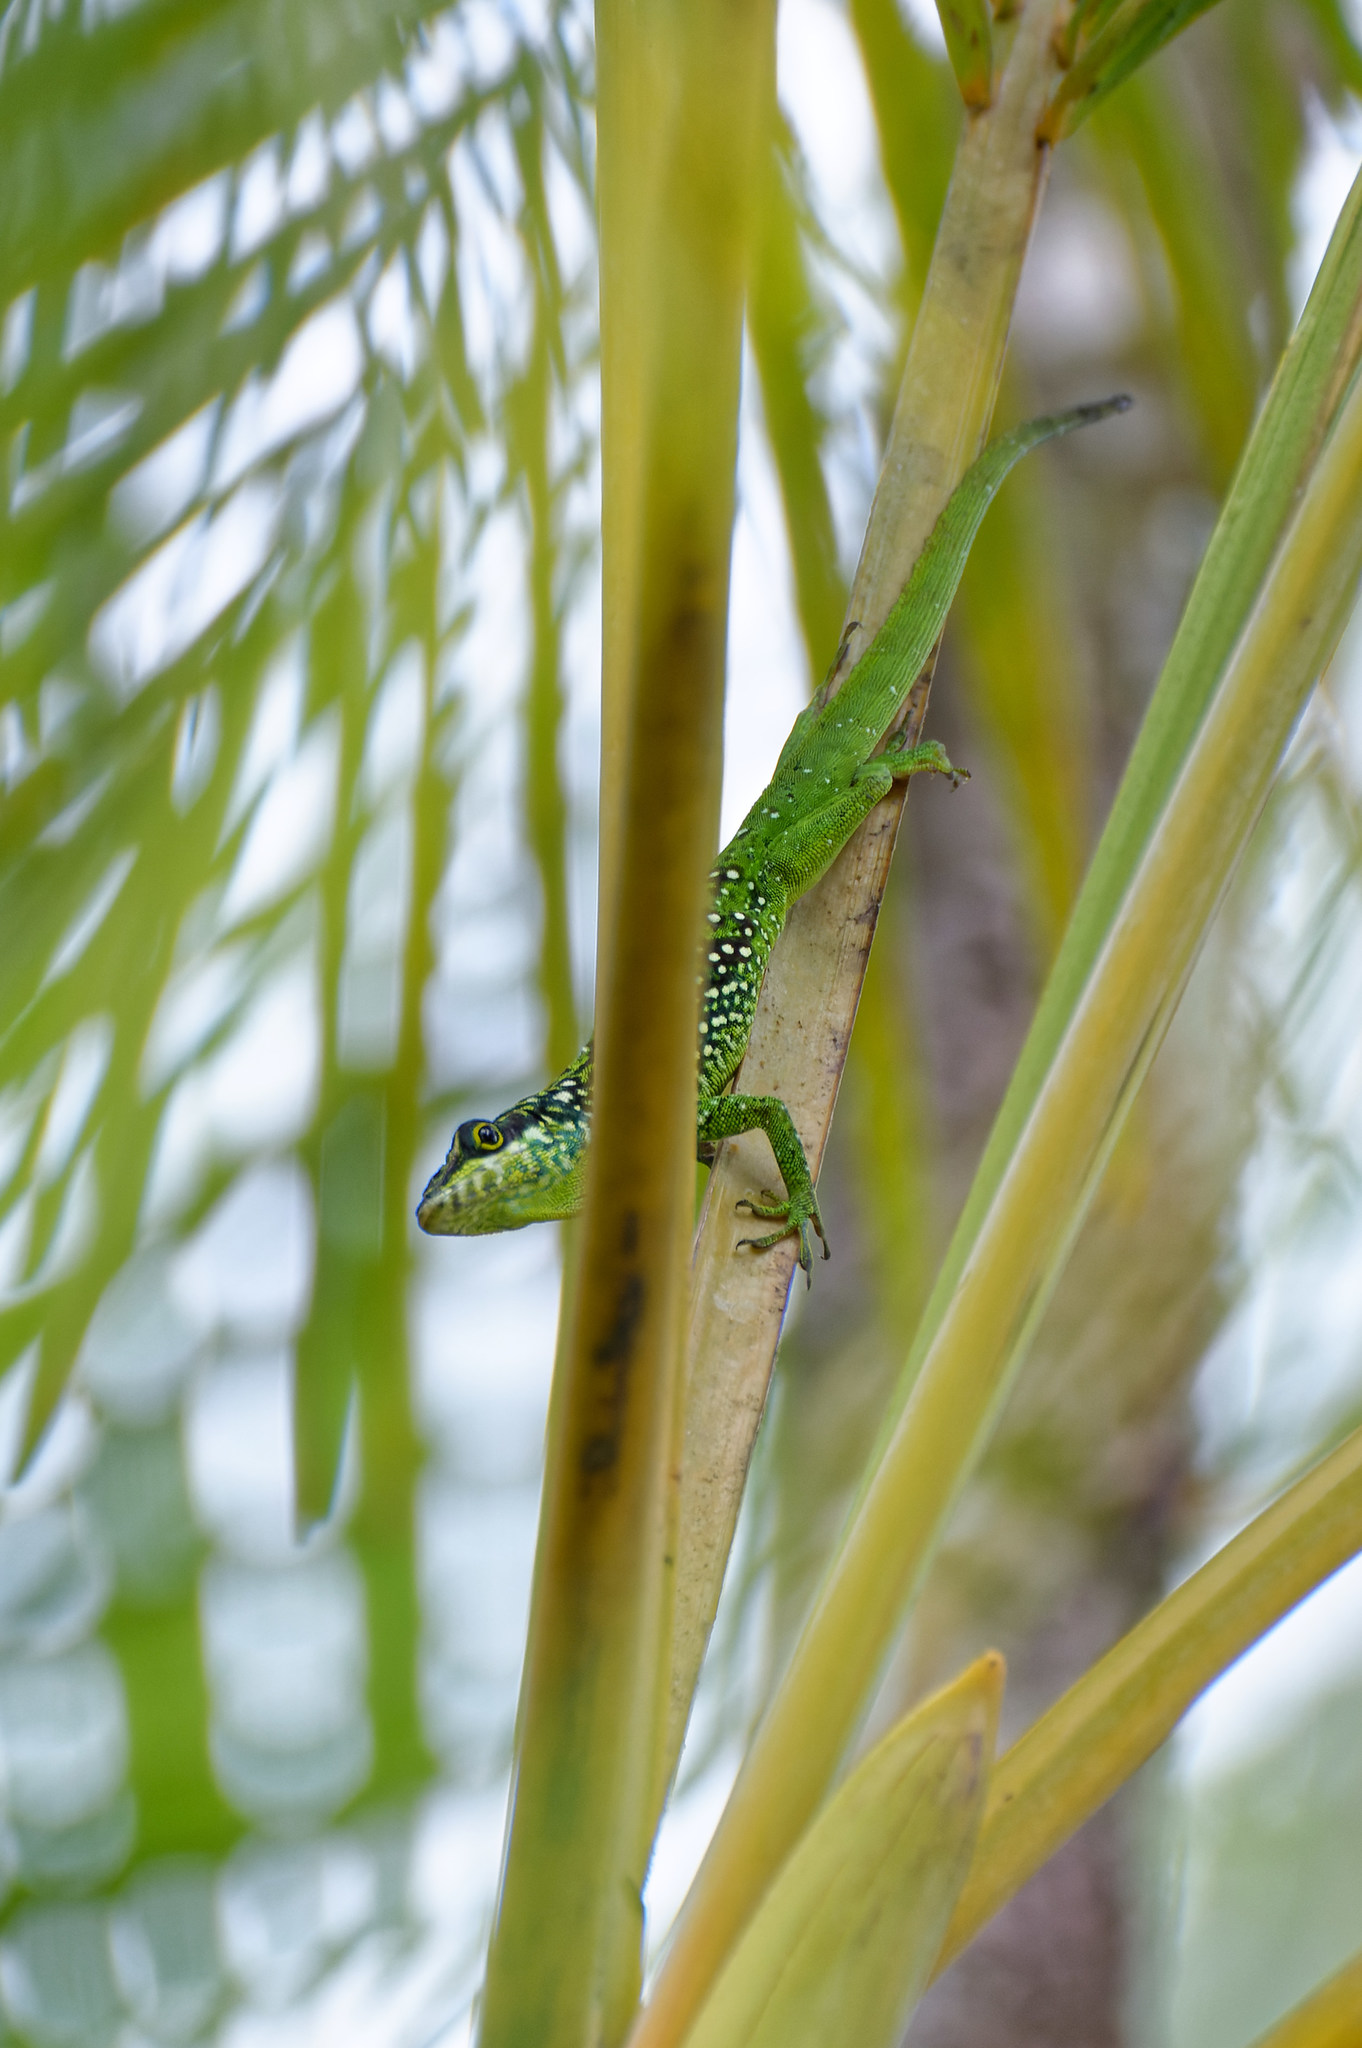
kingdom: Animalia
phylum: Chordata
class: Squamata
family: Dactyloidae
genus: Anolis
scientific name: Anolis roquet
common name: Martinique anole
